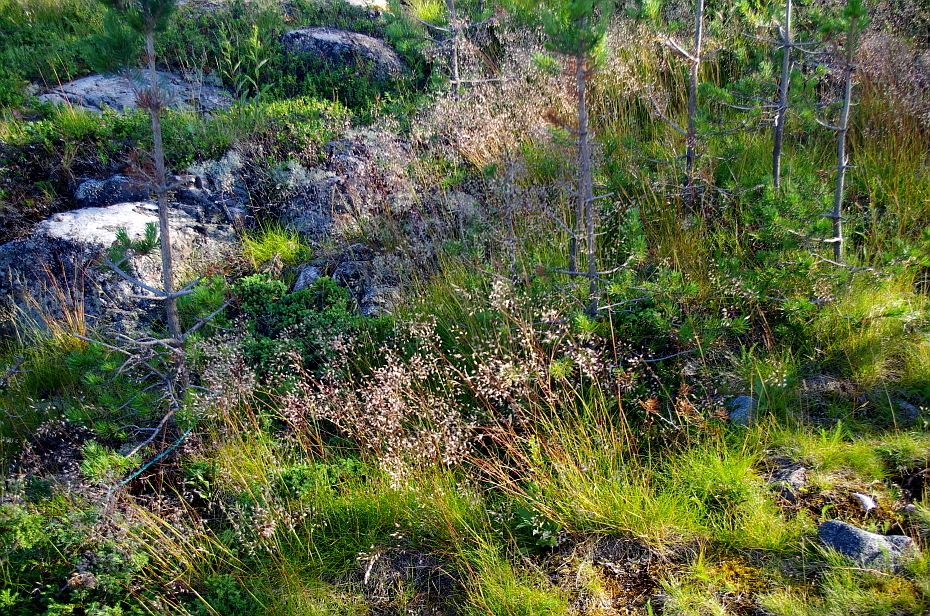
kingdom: Plantae
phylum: Tracheophyta
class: Liliopsida
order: Poales
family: Poaceae
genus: Avenella
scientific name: Avenella flexuosa
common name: Wavy hairgrass
